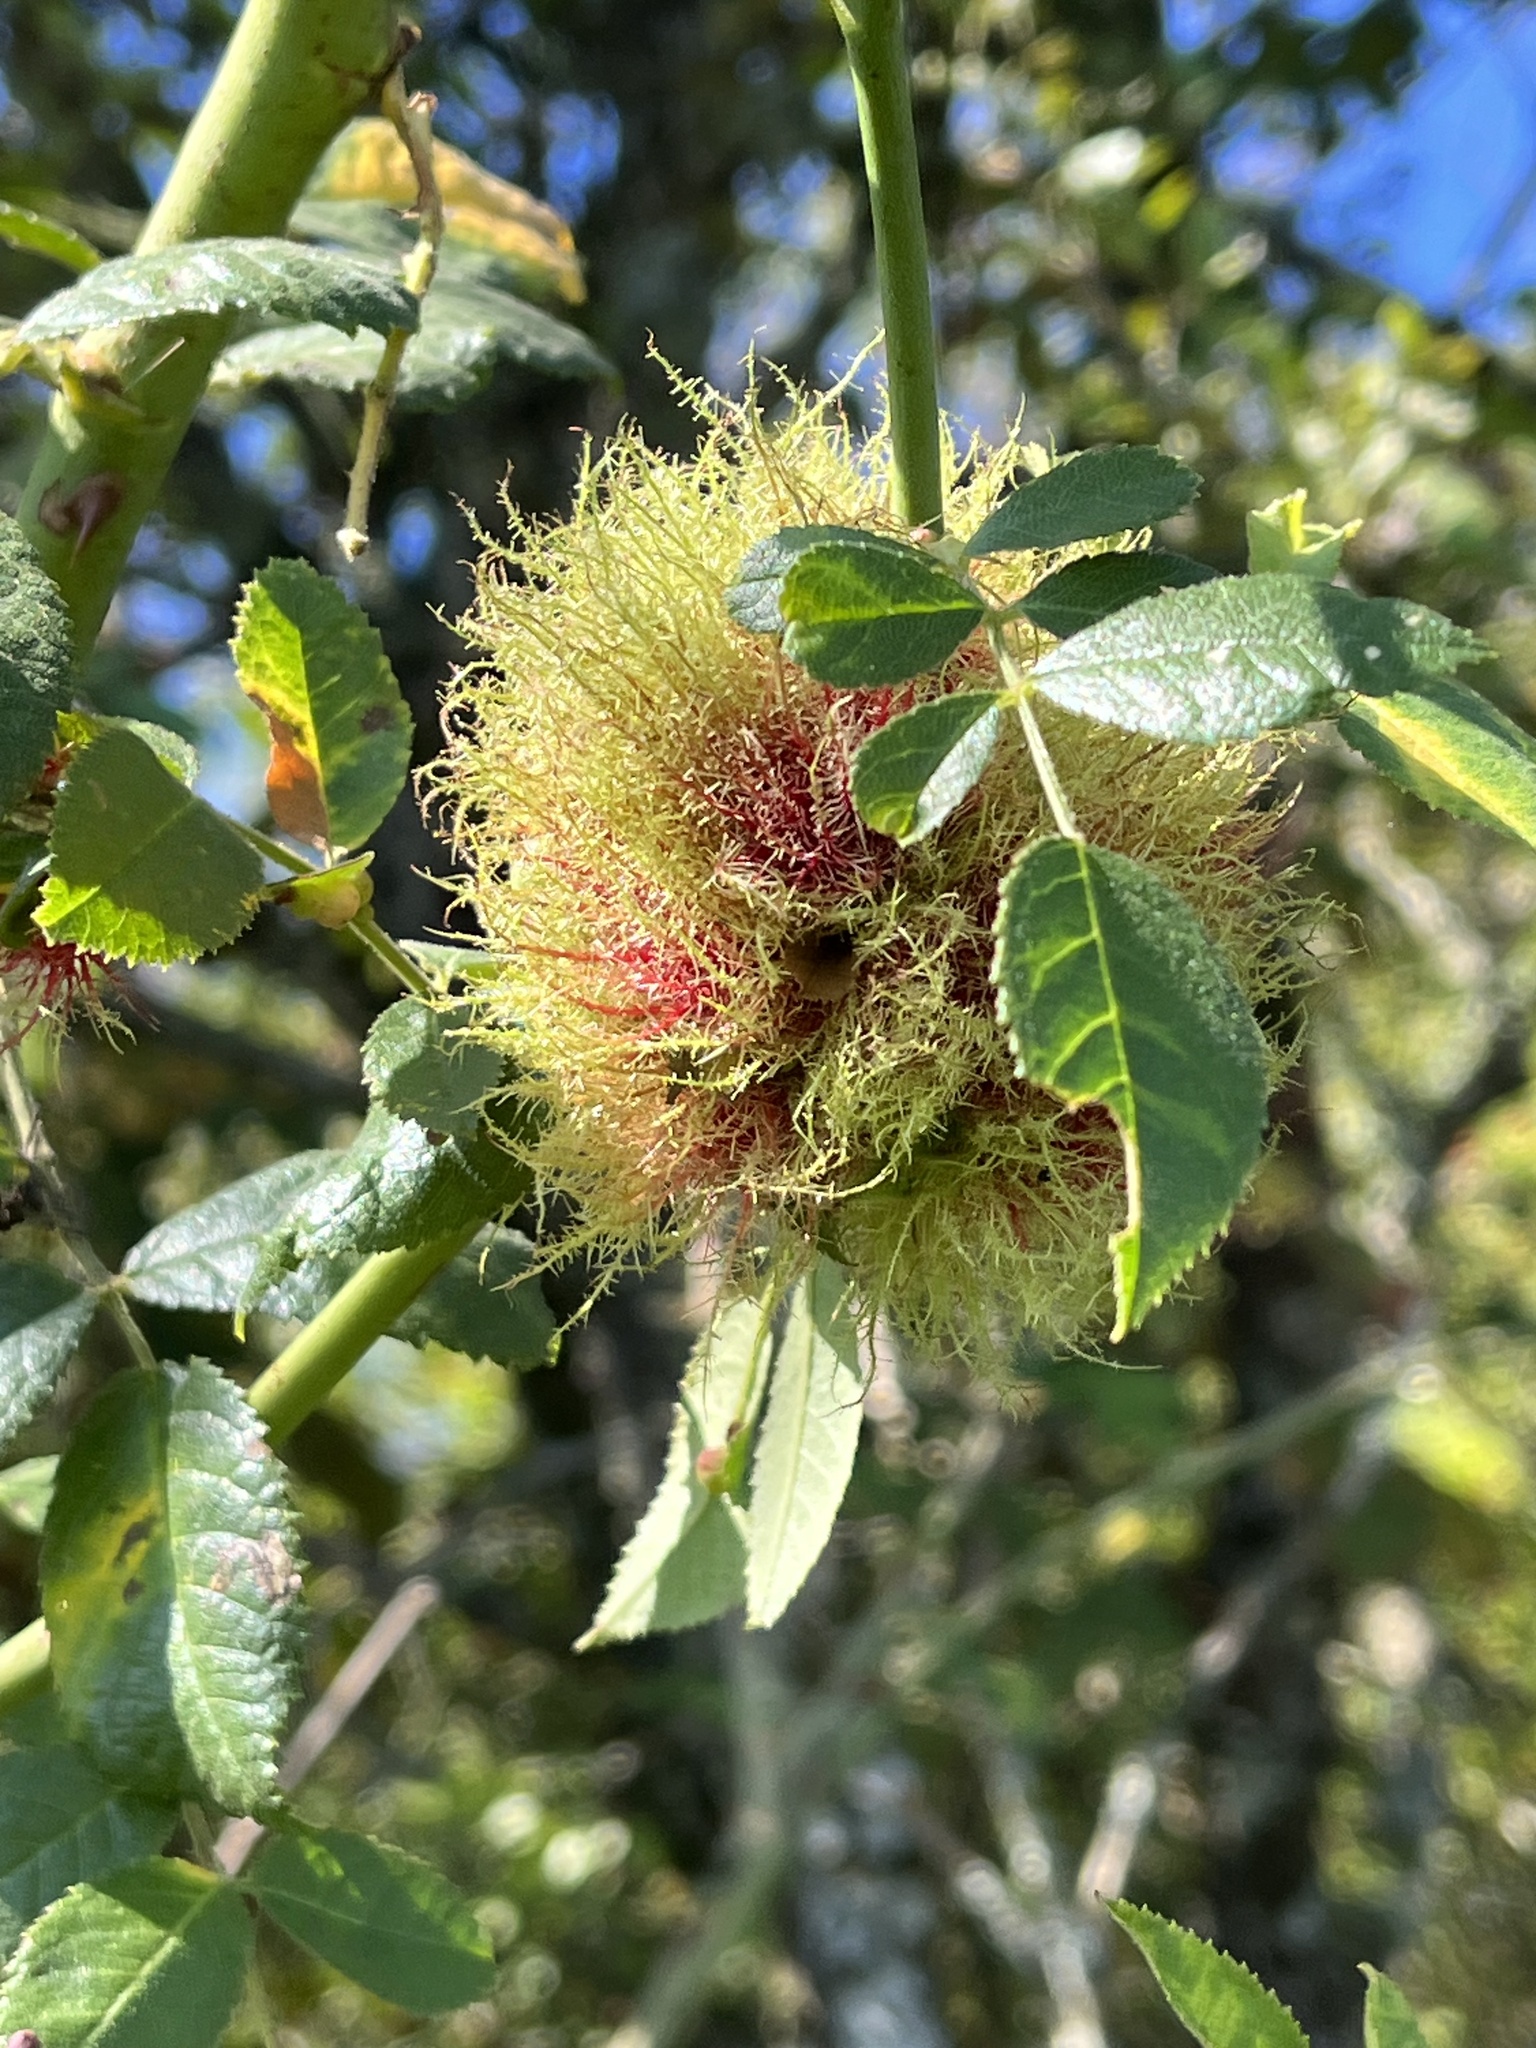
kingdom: Animalia
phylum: Arthropoda
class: Insecta
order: Hymenoptera
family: Cynipidae
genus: Diplolepis
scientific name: Diplolepis rosae
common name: Bedeguar gall
